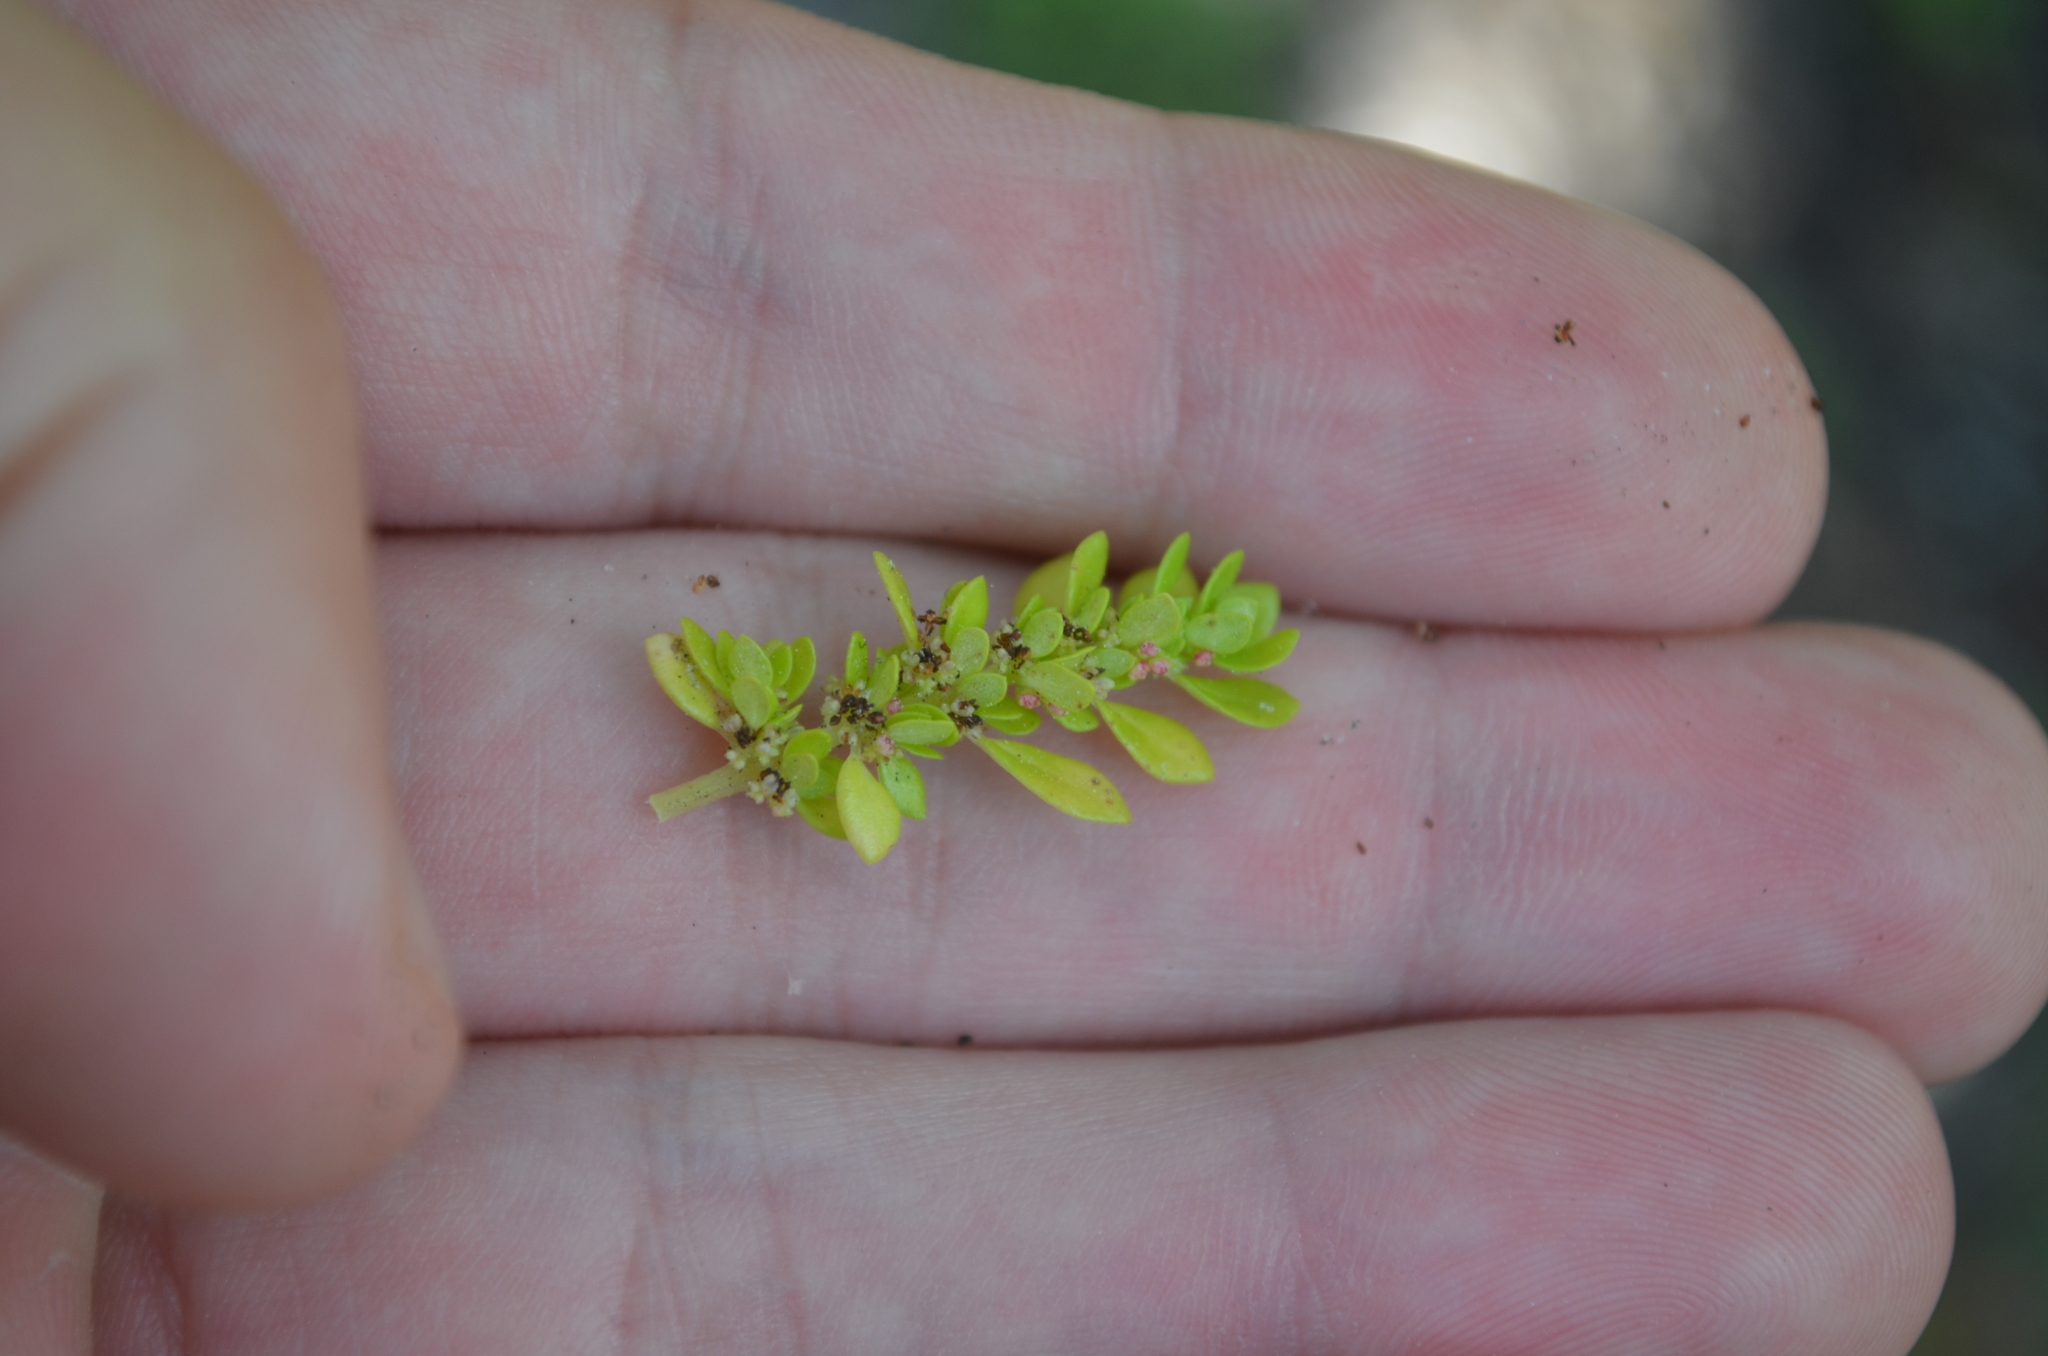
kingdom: Plantae
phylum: Tracheophyta
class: Magnoliopsida
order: Rosales
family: Urticaceae
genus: Pilea
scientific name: Pilea microphylla
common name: Artillery-plant
